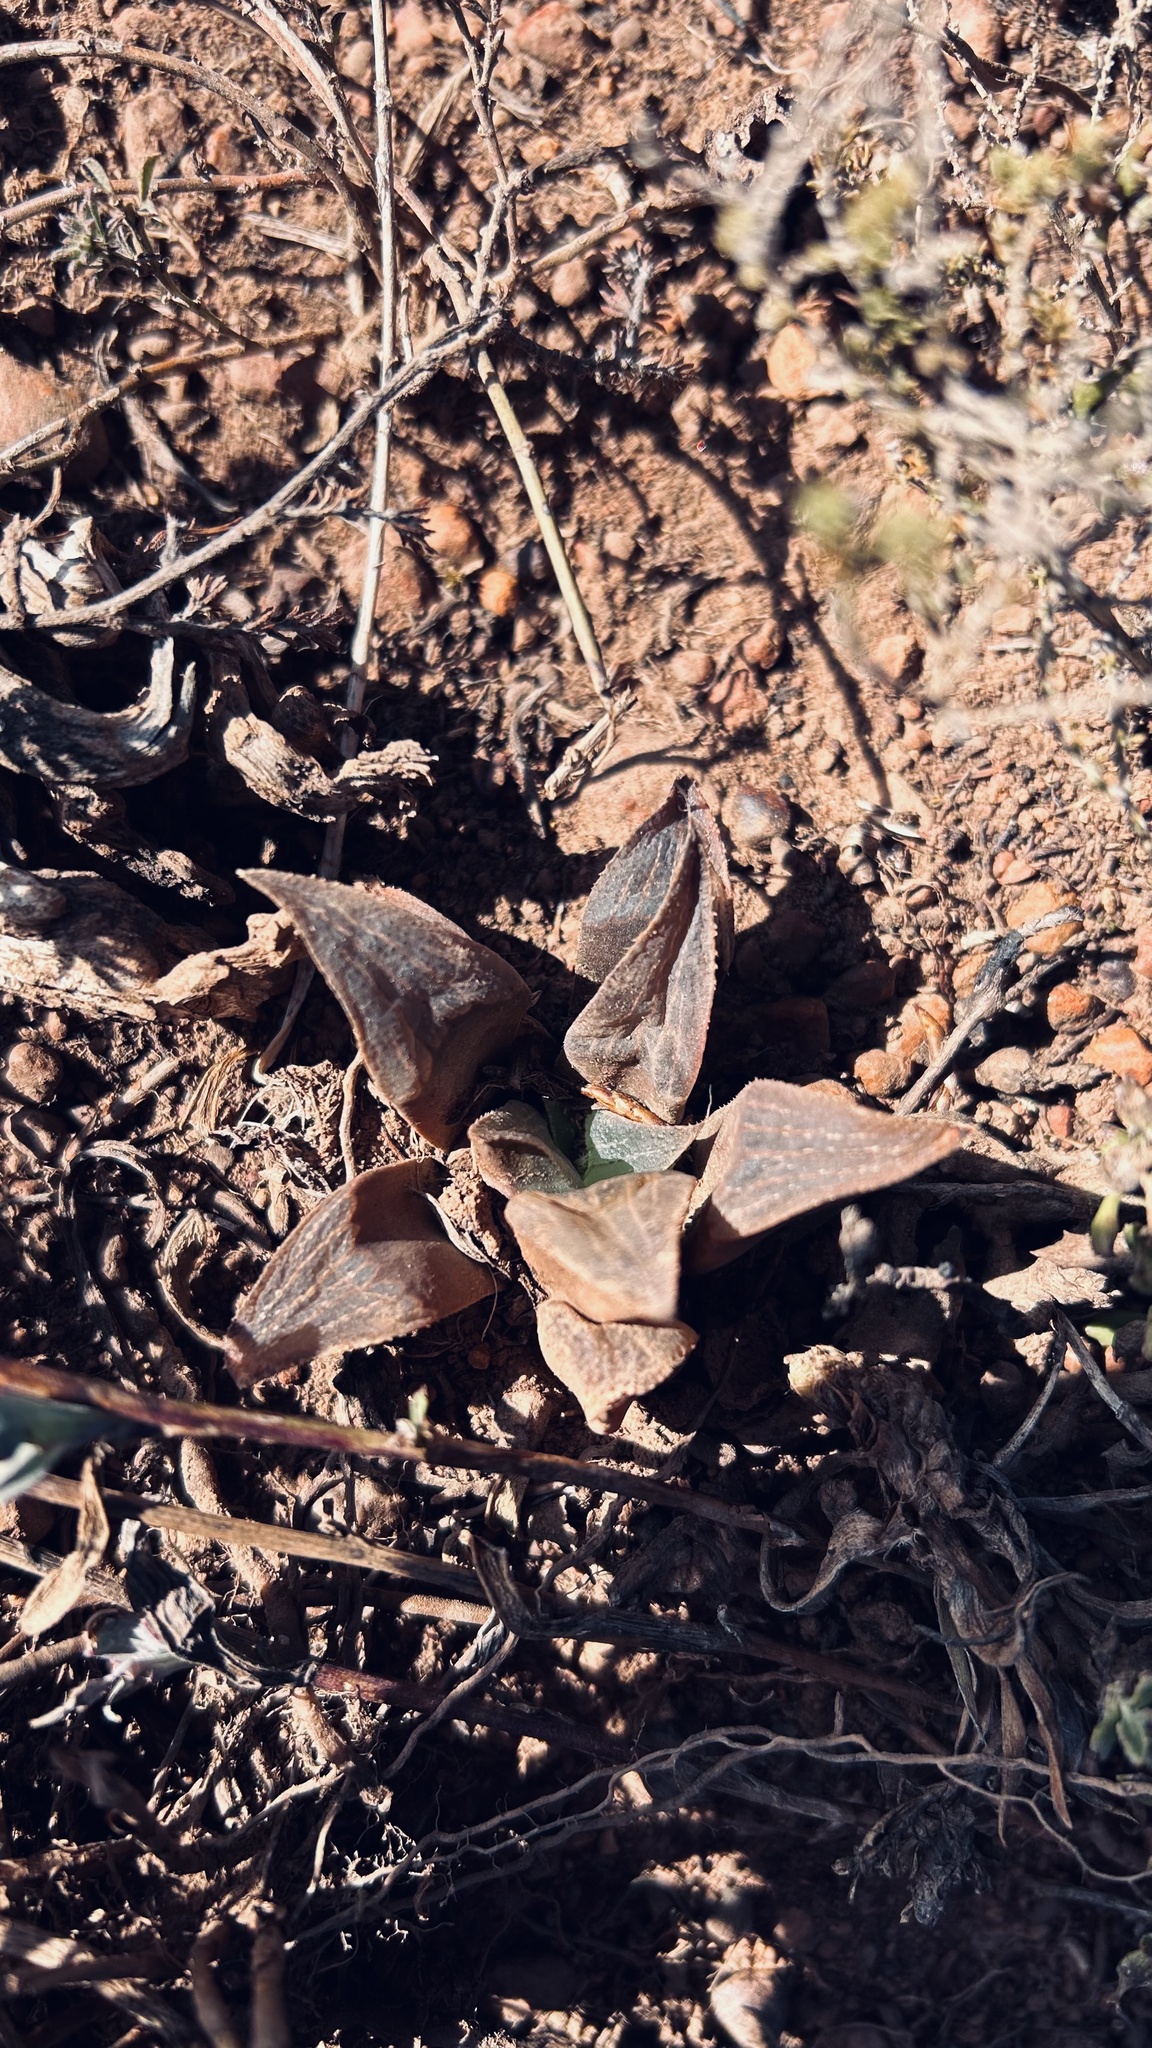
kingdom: Plantae
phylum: Tracheophyta
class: Liliopsida
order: Asparagales
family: Asphodelaceae
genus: Haworthia
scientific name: Haworthia magnifica
